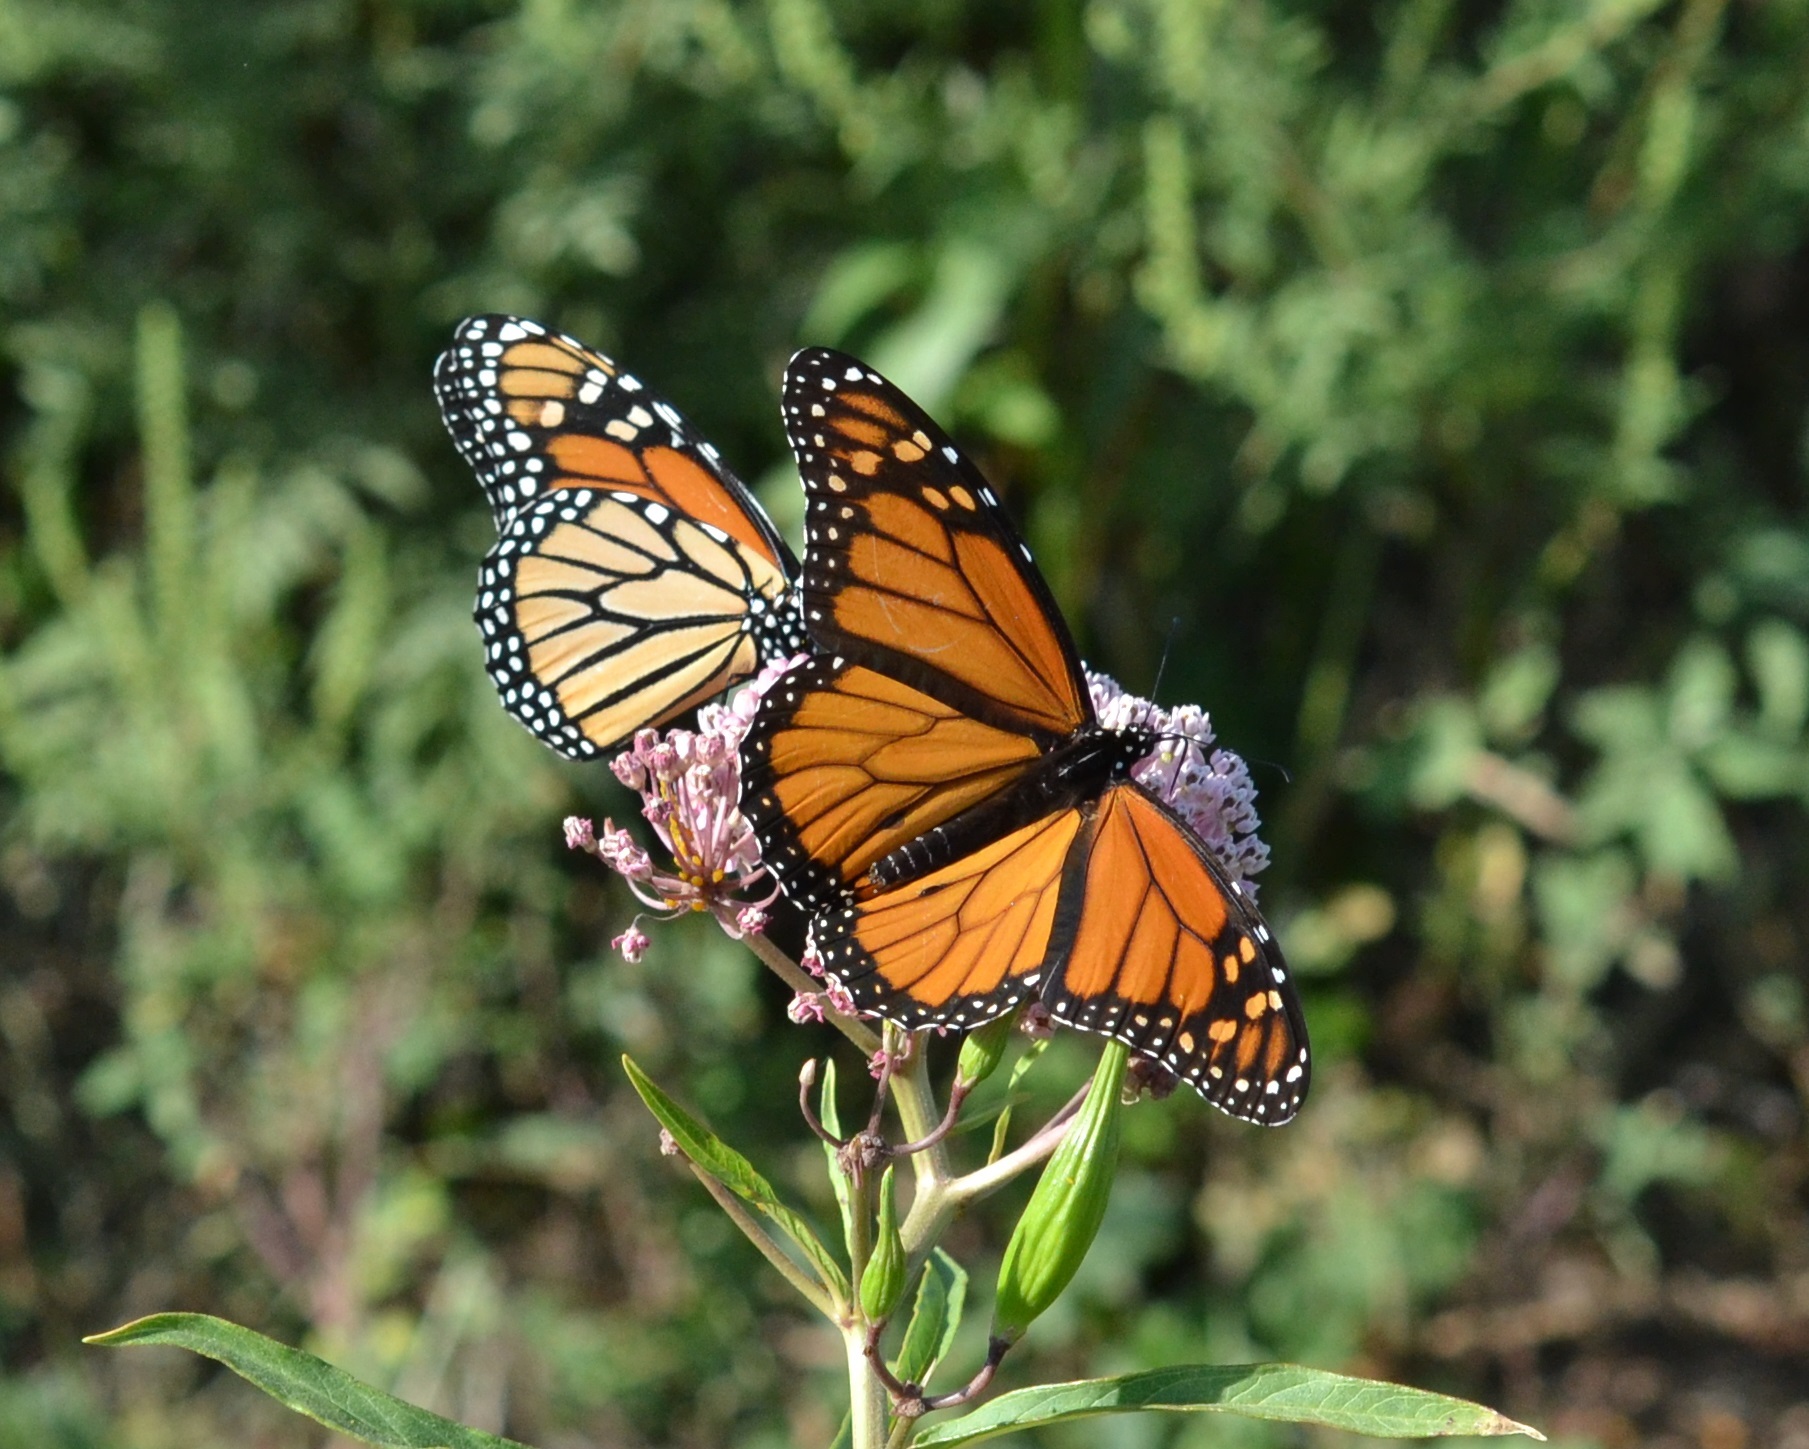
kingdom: Animalia
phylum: Arthropoda
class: Insecta
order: Lepidoptera
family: Nymphalidae
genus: Danaus
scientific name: Danaus plexippus
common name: Monarch
